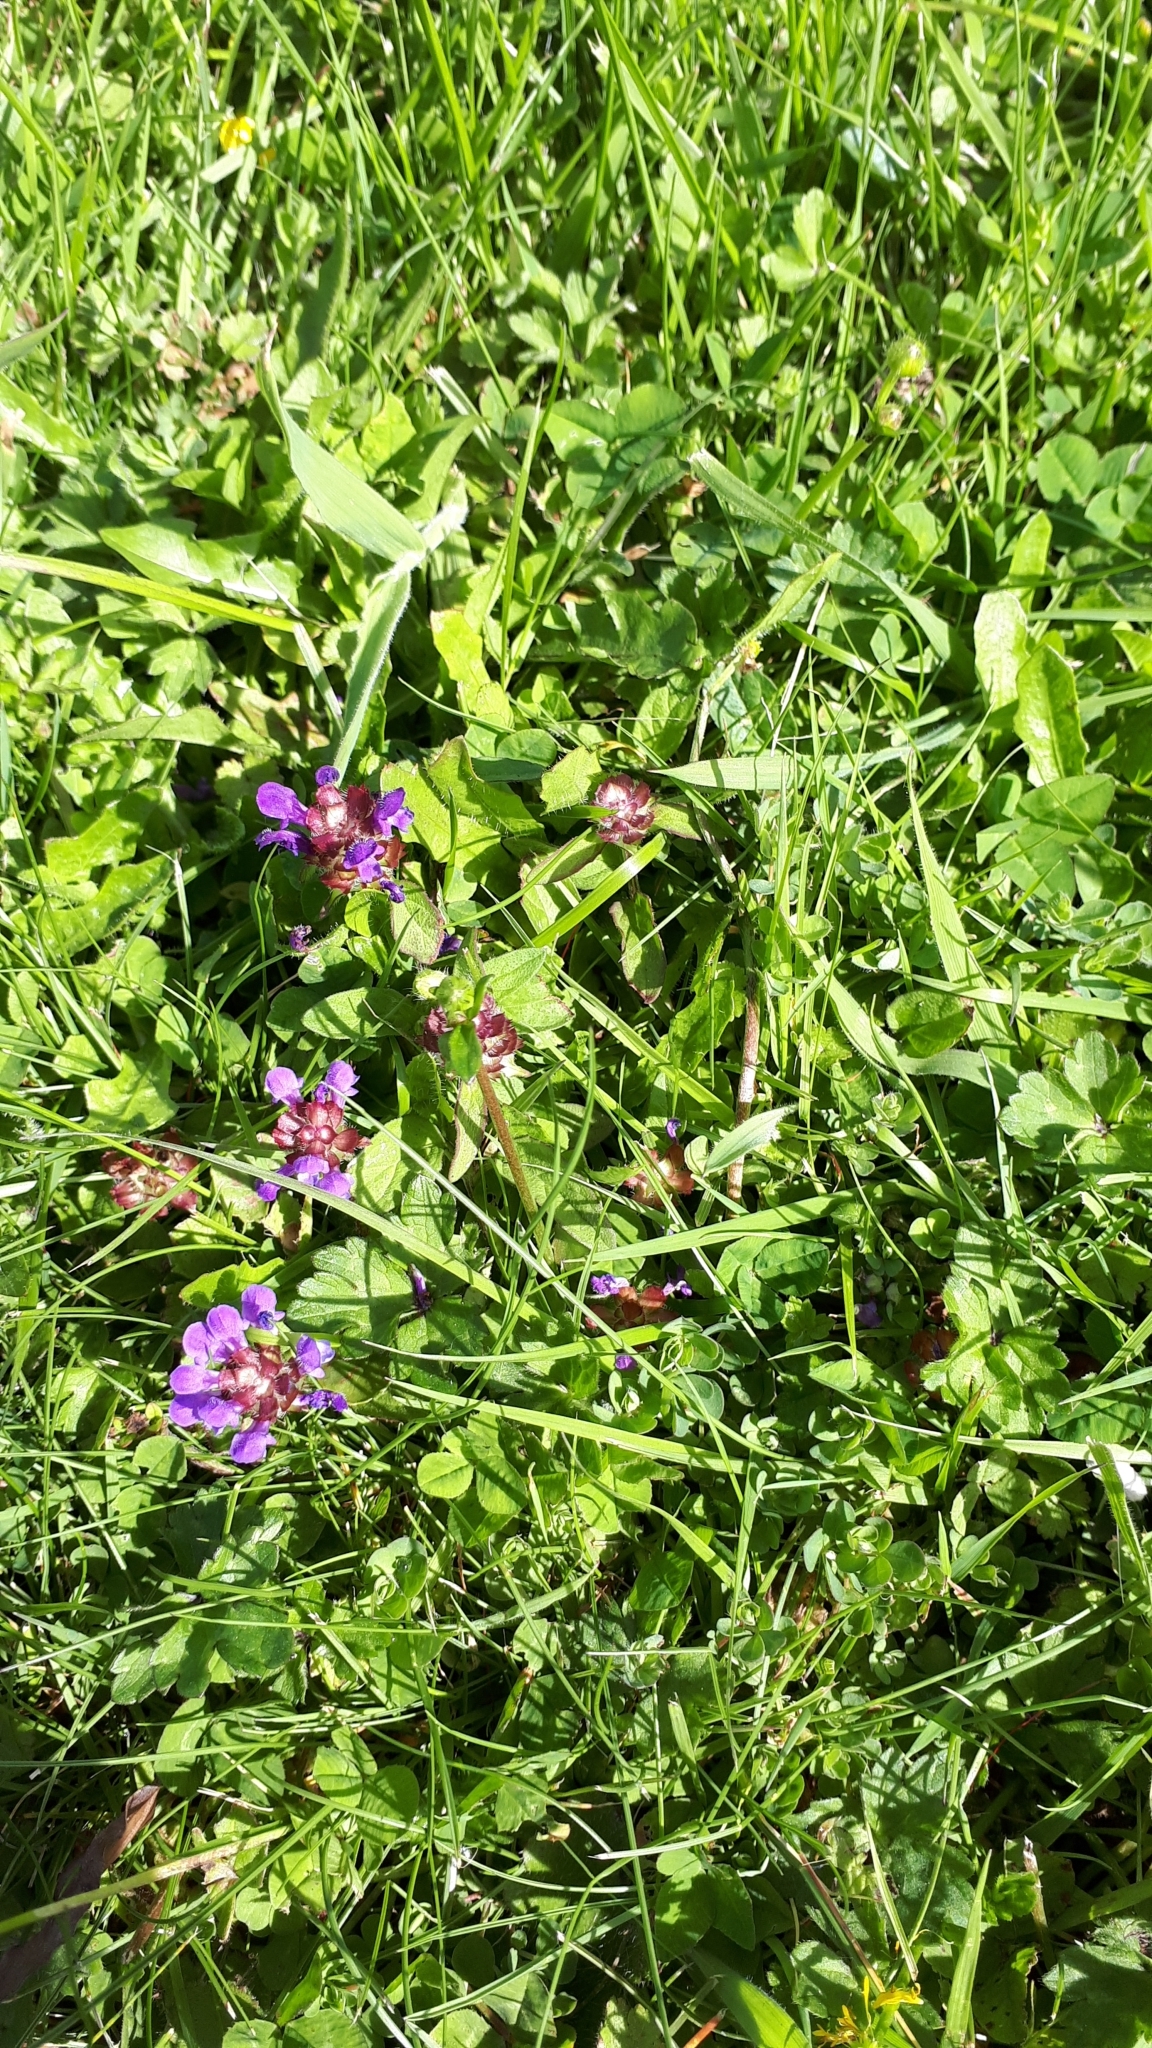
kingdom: Plantae
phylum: Tracheophyta
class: Magnoliopsida
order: Lamiales
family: Lamiaceae
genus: Prunella
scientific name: Prunella vulgaris
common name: Heal-all
